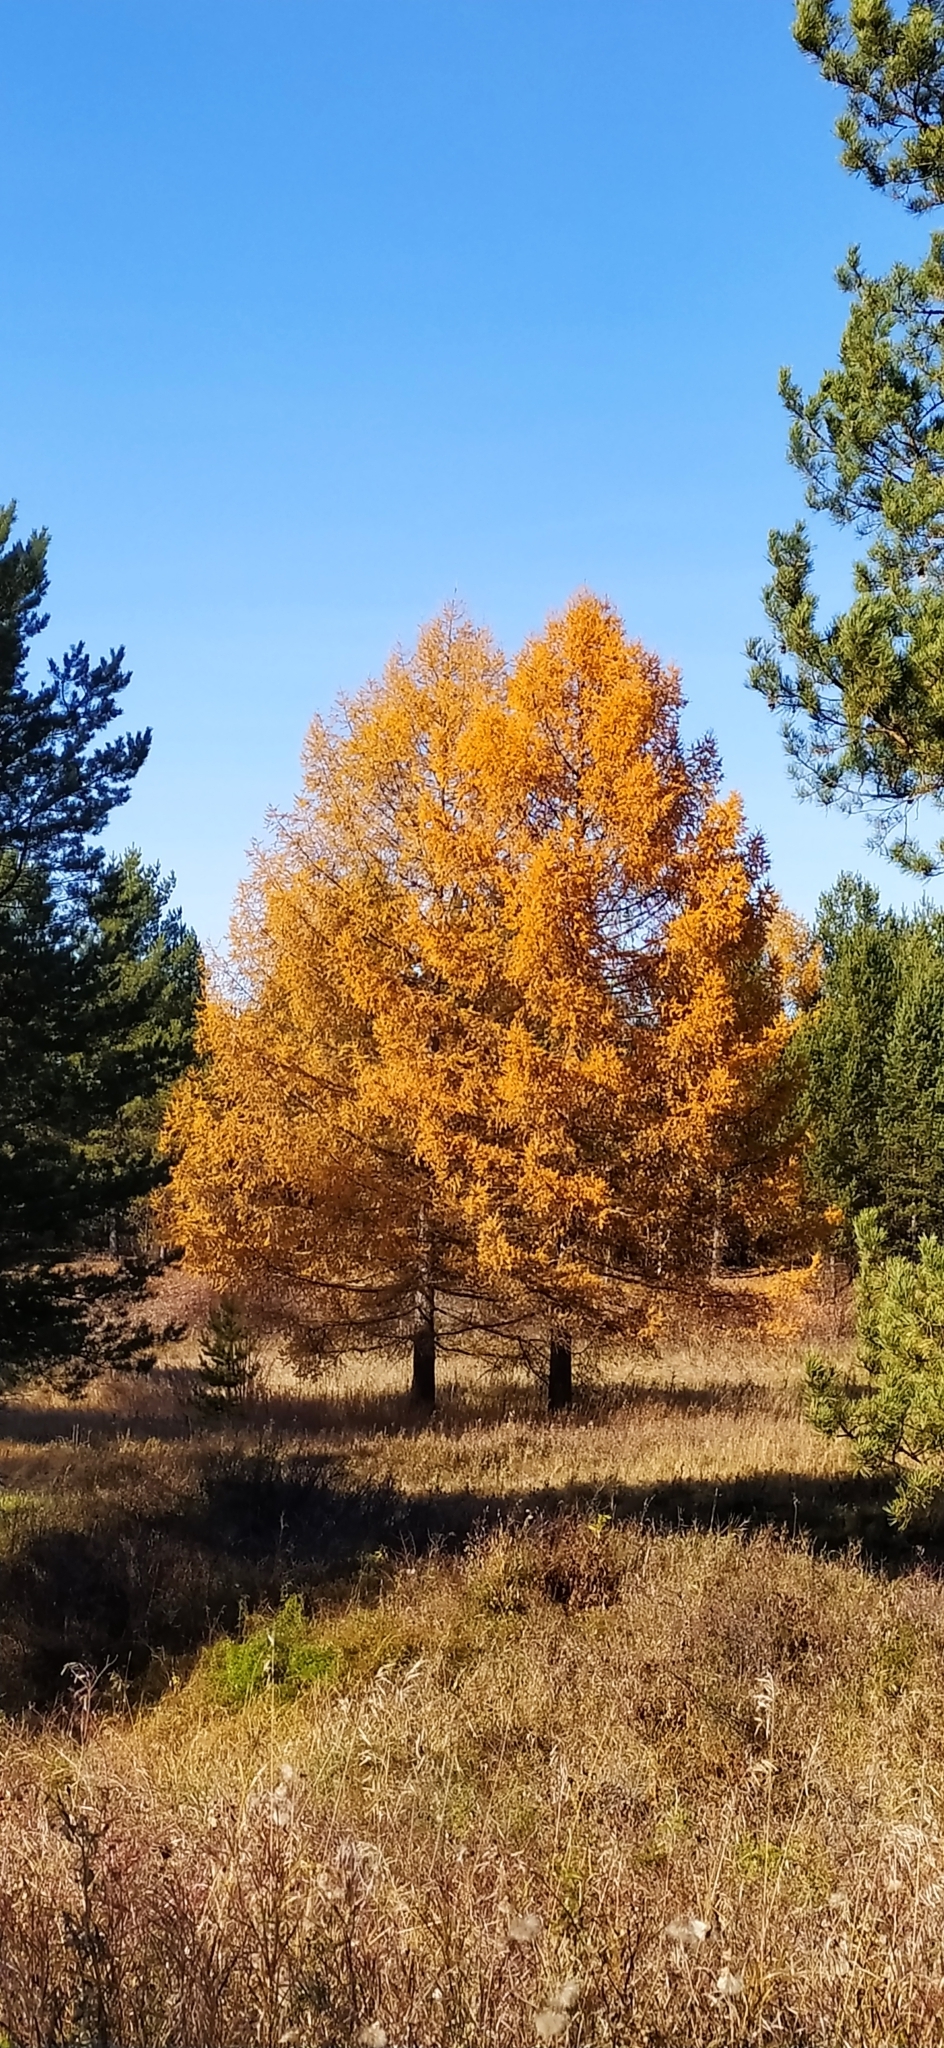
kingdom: Plantae
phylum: Tracheophyta
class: Pinopsida
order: Pinales
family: Pinaceae
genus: Larix
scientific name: Larix sibirica
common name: Siberian larch
